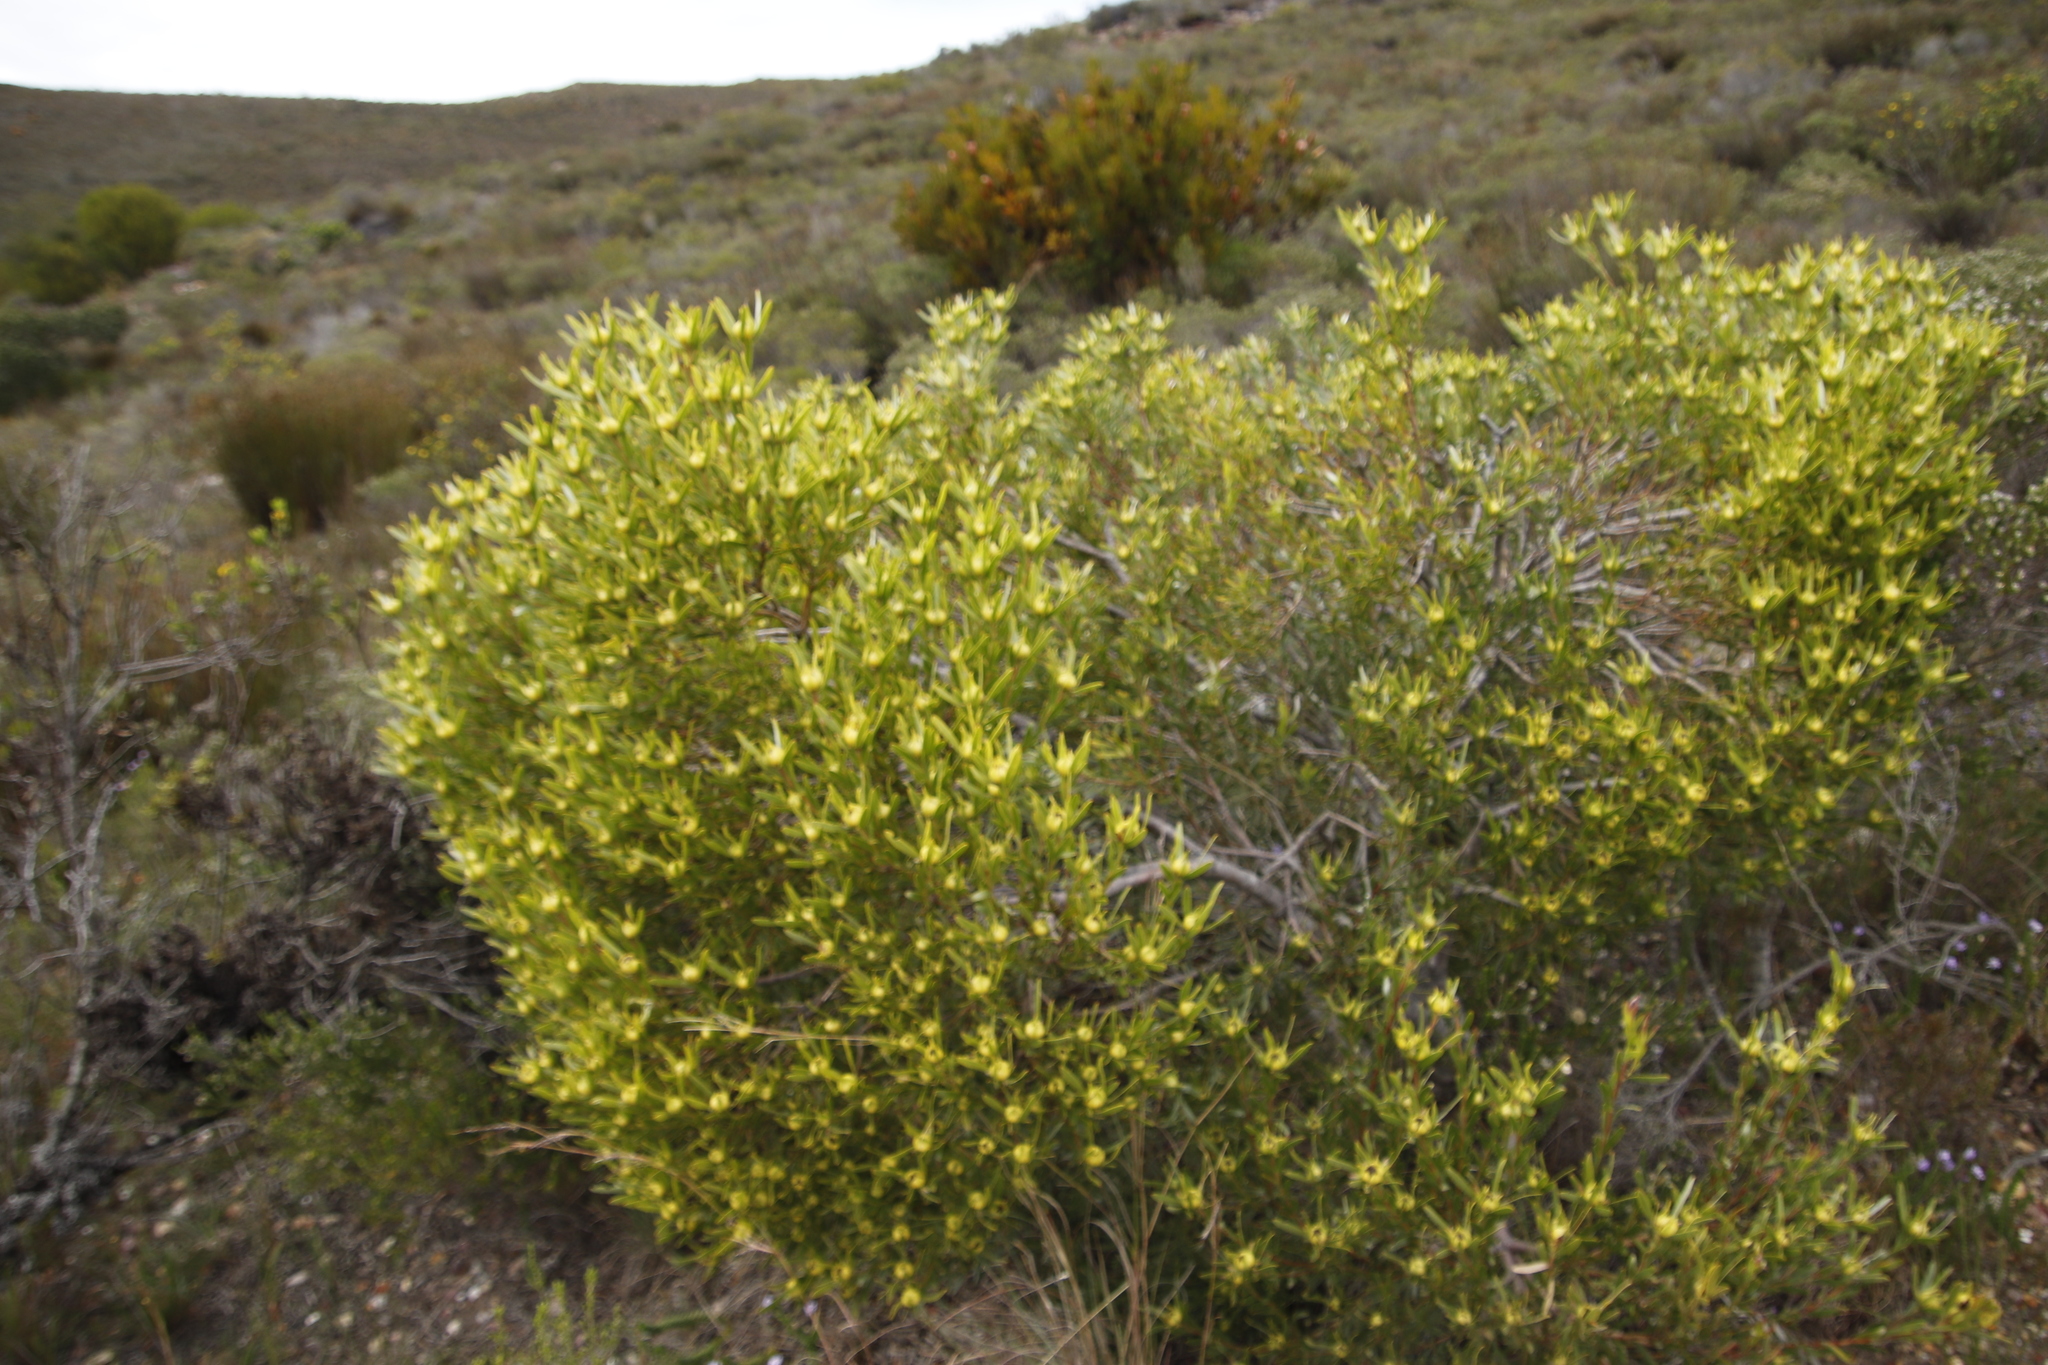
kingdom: Plantae
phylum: Tracheophyta
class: Magnoliopsida
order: Proteales
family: Proteaceae
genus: Leucadendron
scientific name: Leucadendron xanthoconus
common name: Sickle-leaf conebush
